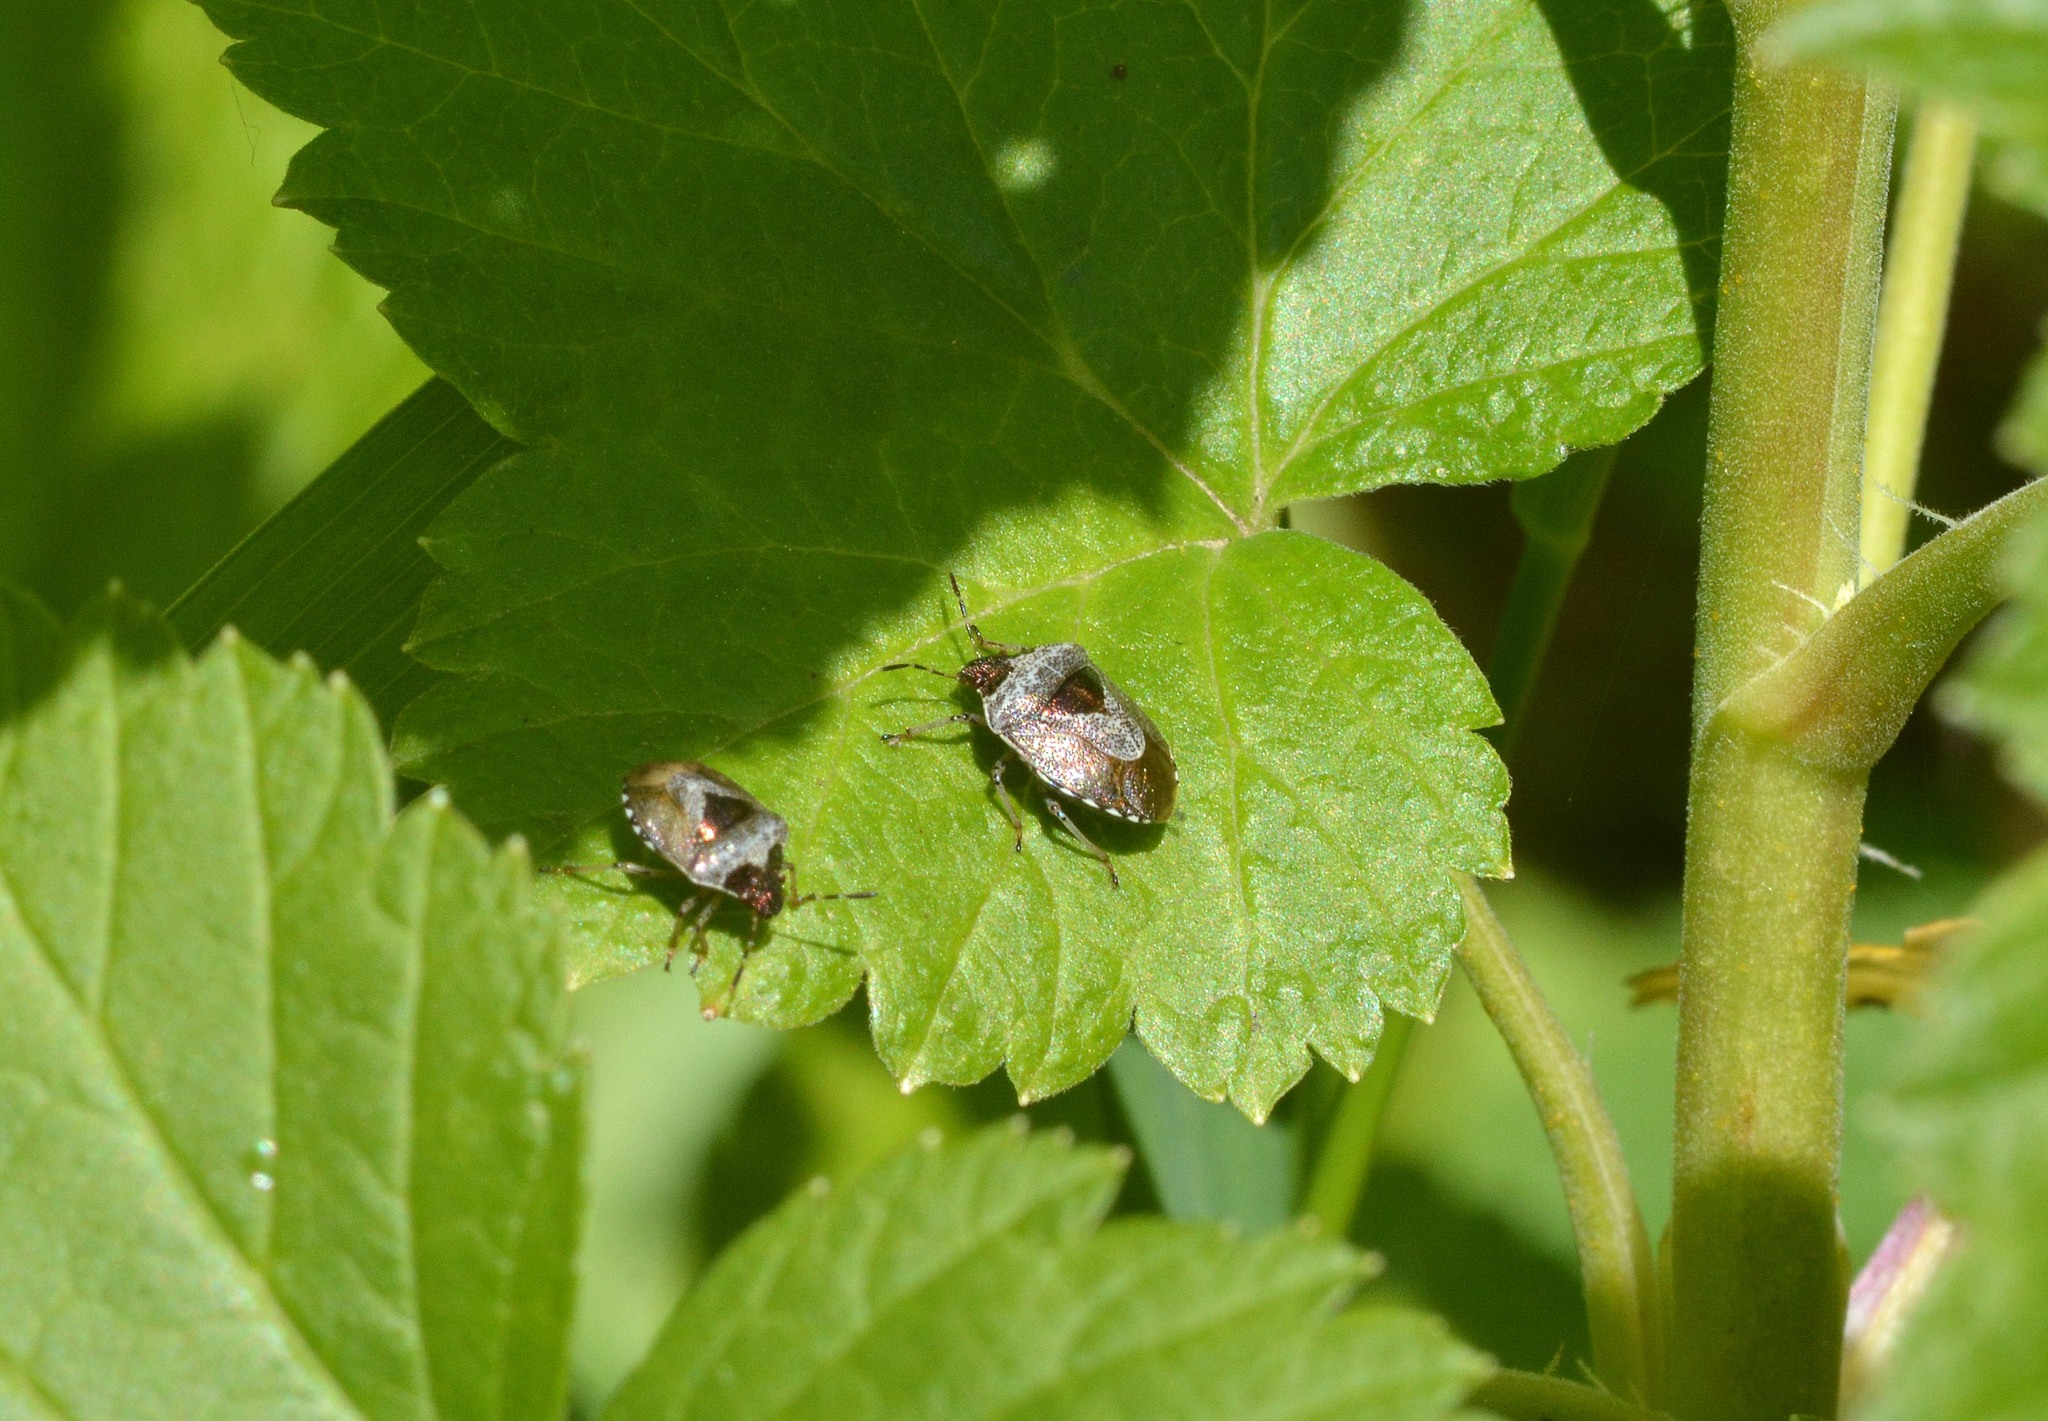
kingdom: Animalia
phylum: Arthropoda
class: Insecta
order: Hemiptera
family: Pentatomidae
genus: Eysarcoris
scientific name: Eysarcoris venustissimus
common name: Woundwort shieldbug
